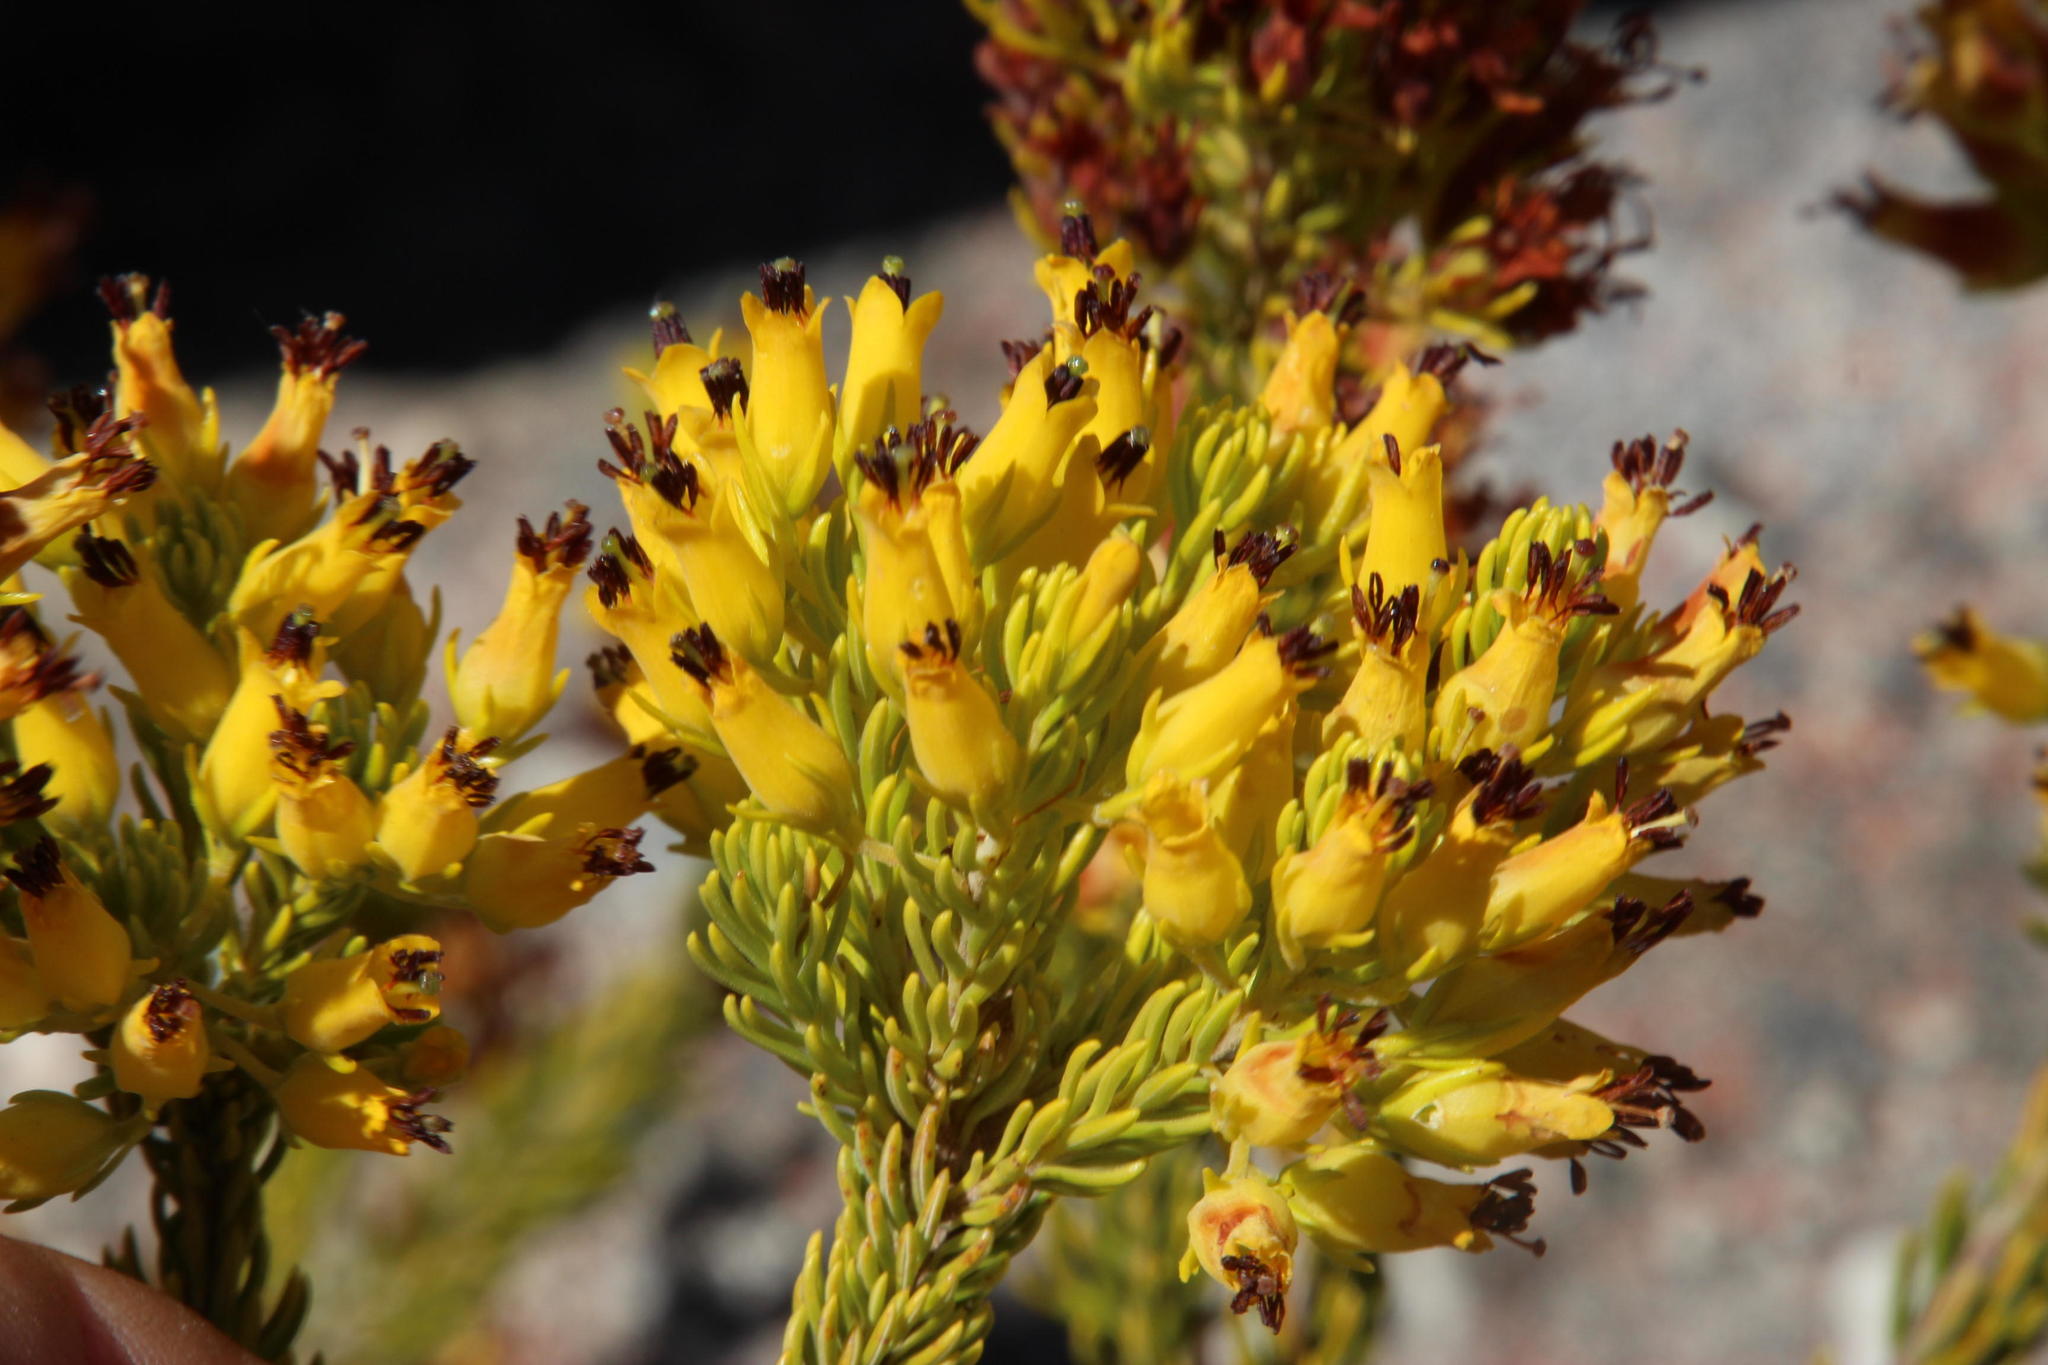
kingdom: Plantae
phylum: Tracheophyta
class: Magnoliopsida
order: Ericales
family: Ericaceae
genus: Erica
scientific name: Erica parilis
